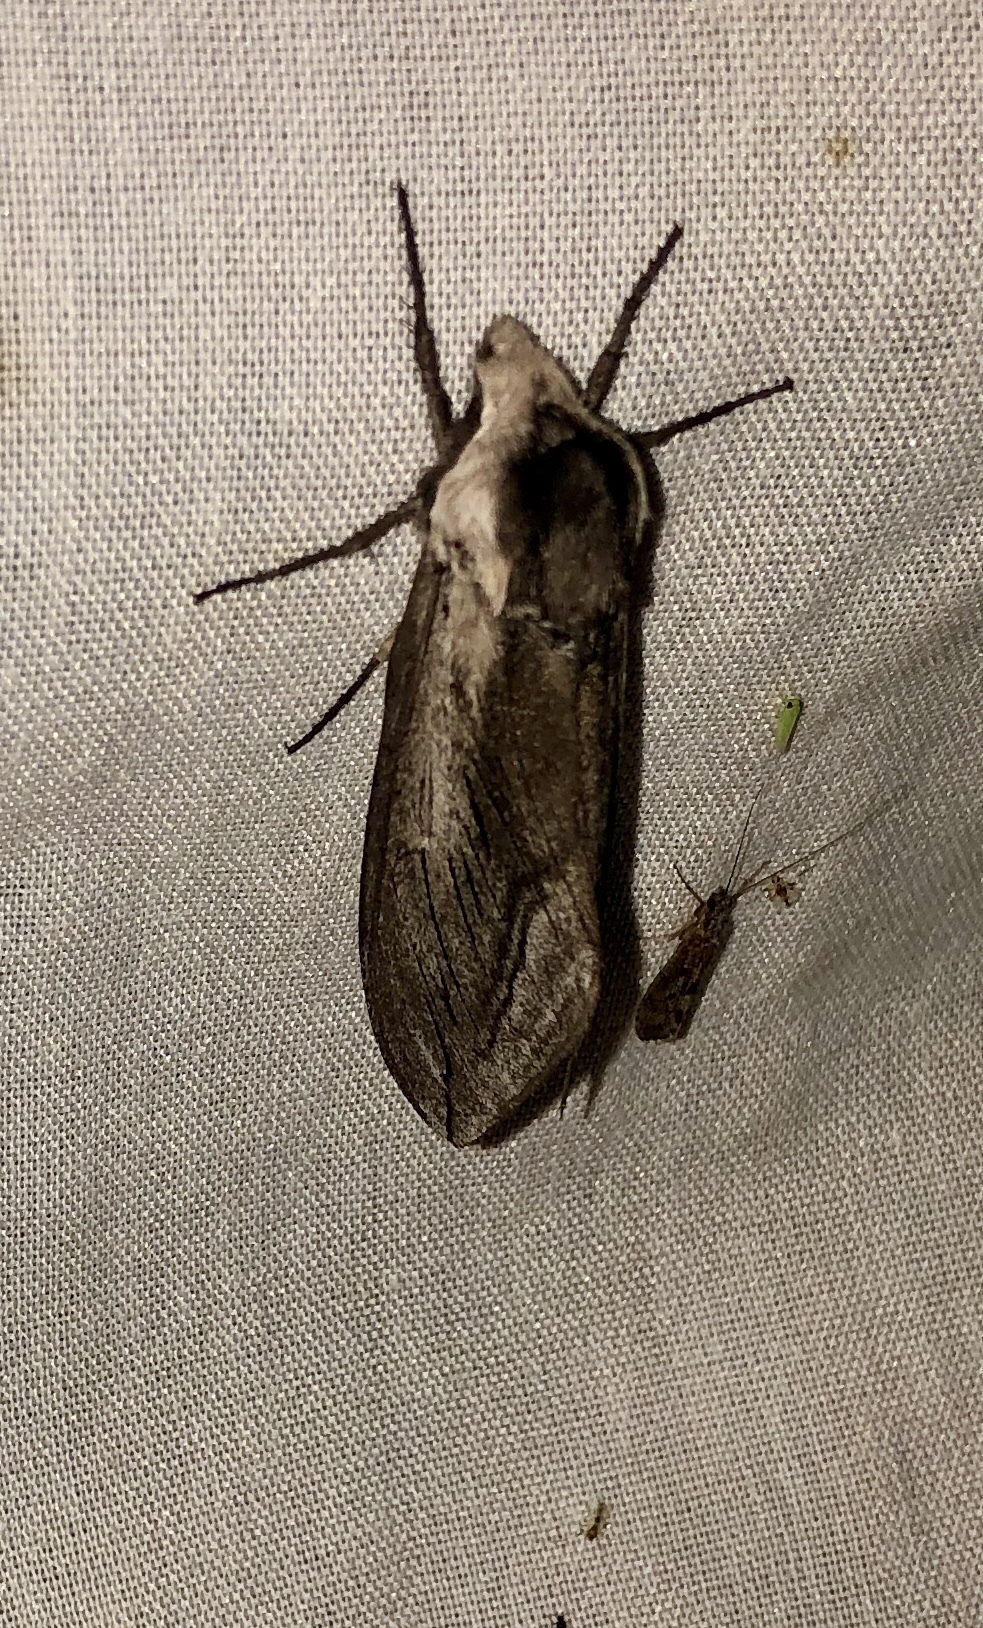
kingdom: Animalia
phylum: Arthropoda
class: Insecta
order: Lepidoptera
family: Sphingidae
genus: Sphinx
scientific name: Sphinx vashti
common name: Snowberry sphinx
